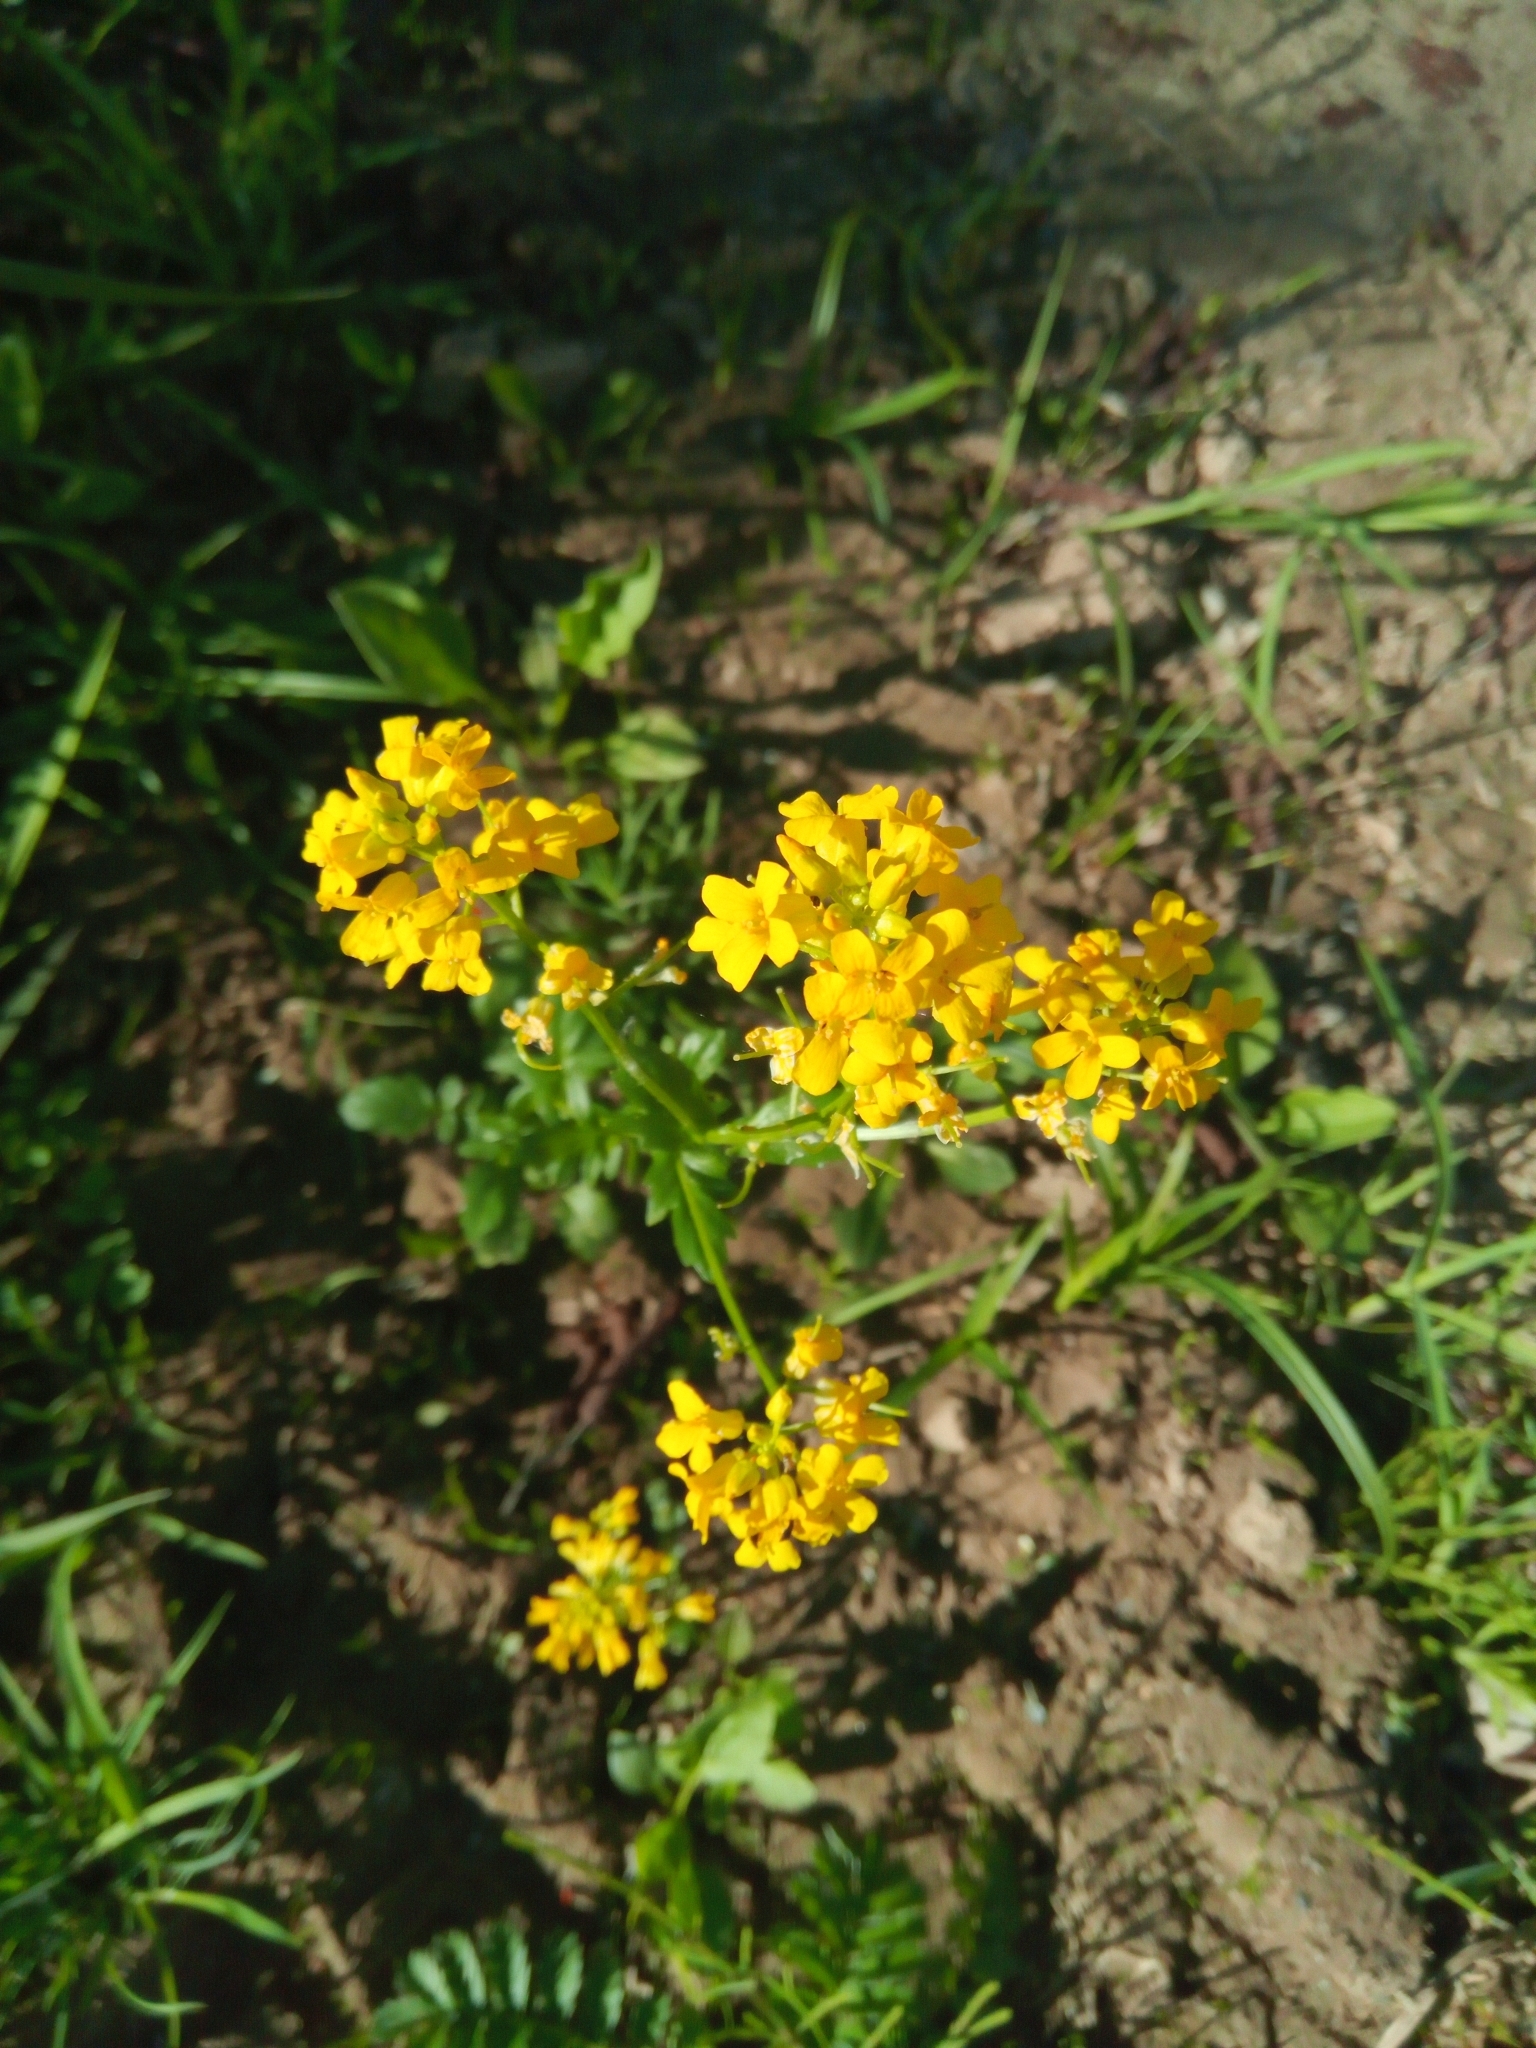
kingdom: Plantae
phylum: Tracheophyta
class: Magnoliopsida
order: Brassicales
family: Brassicaceae
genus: Barbarea
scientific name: Barbarea vulgaris
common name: Cressy-greens
